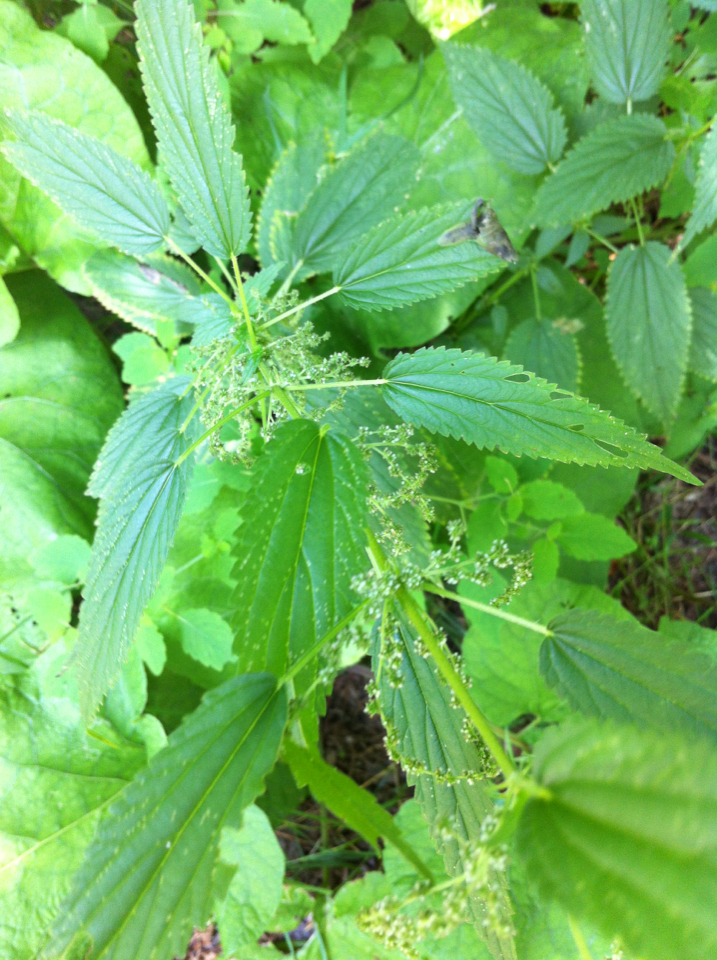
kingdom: Plantae
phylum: Tracheophyta
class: Magnoliopsida
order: Rosales
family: Urticaceae
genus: Urtica
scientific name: Urtica dioica
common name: Common nettle
